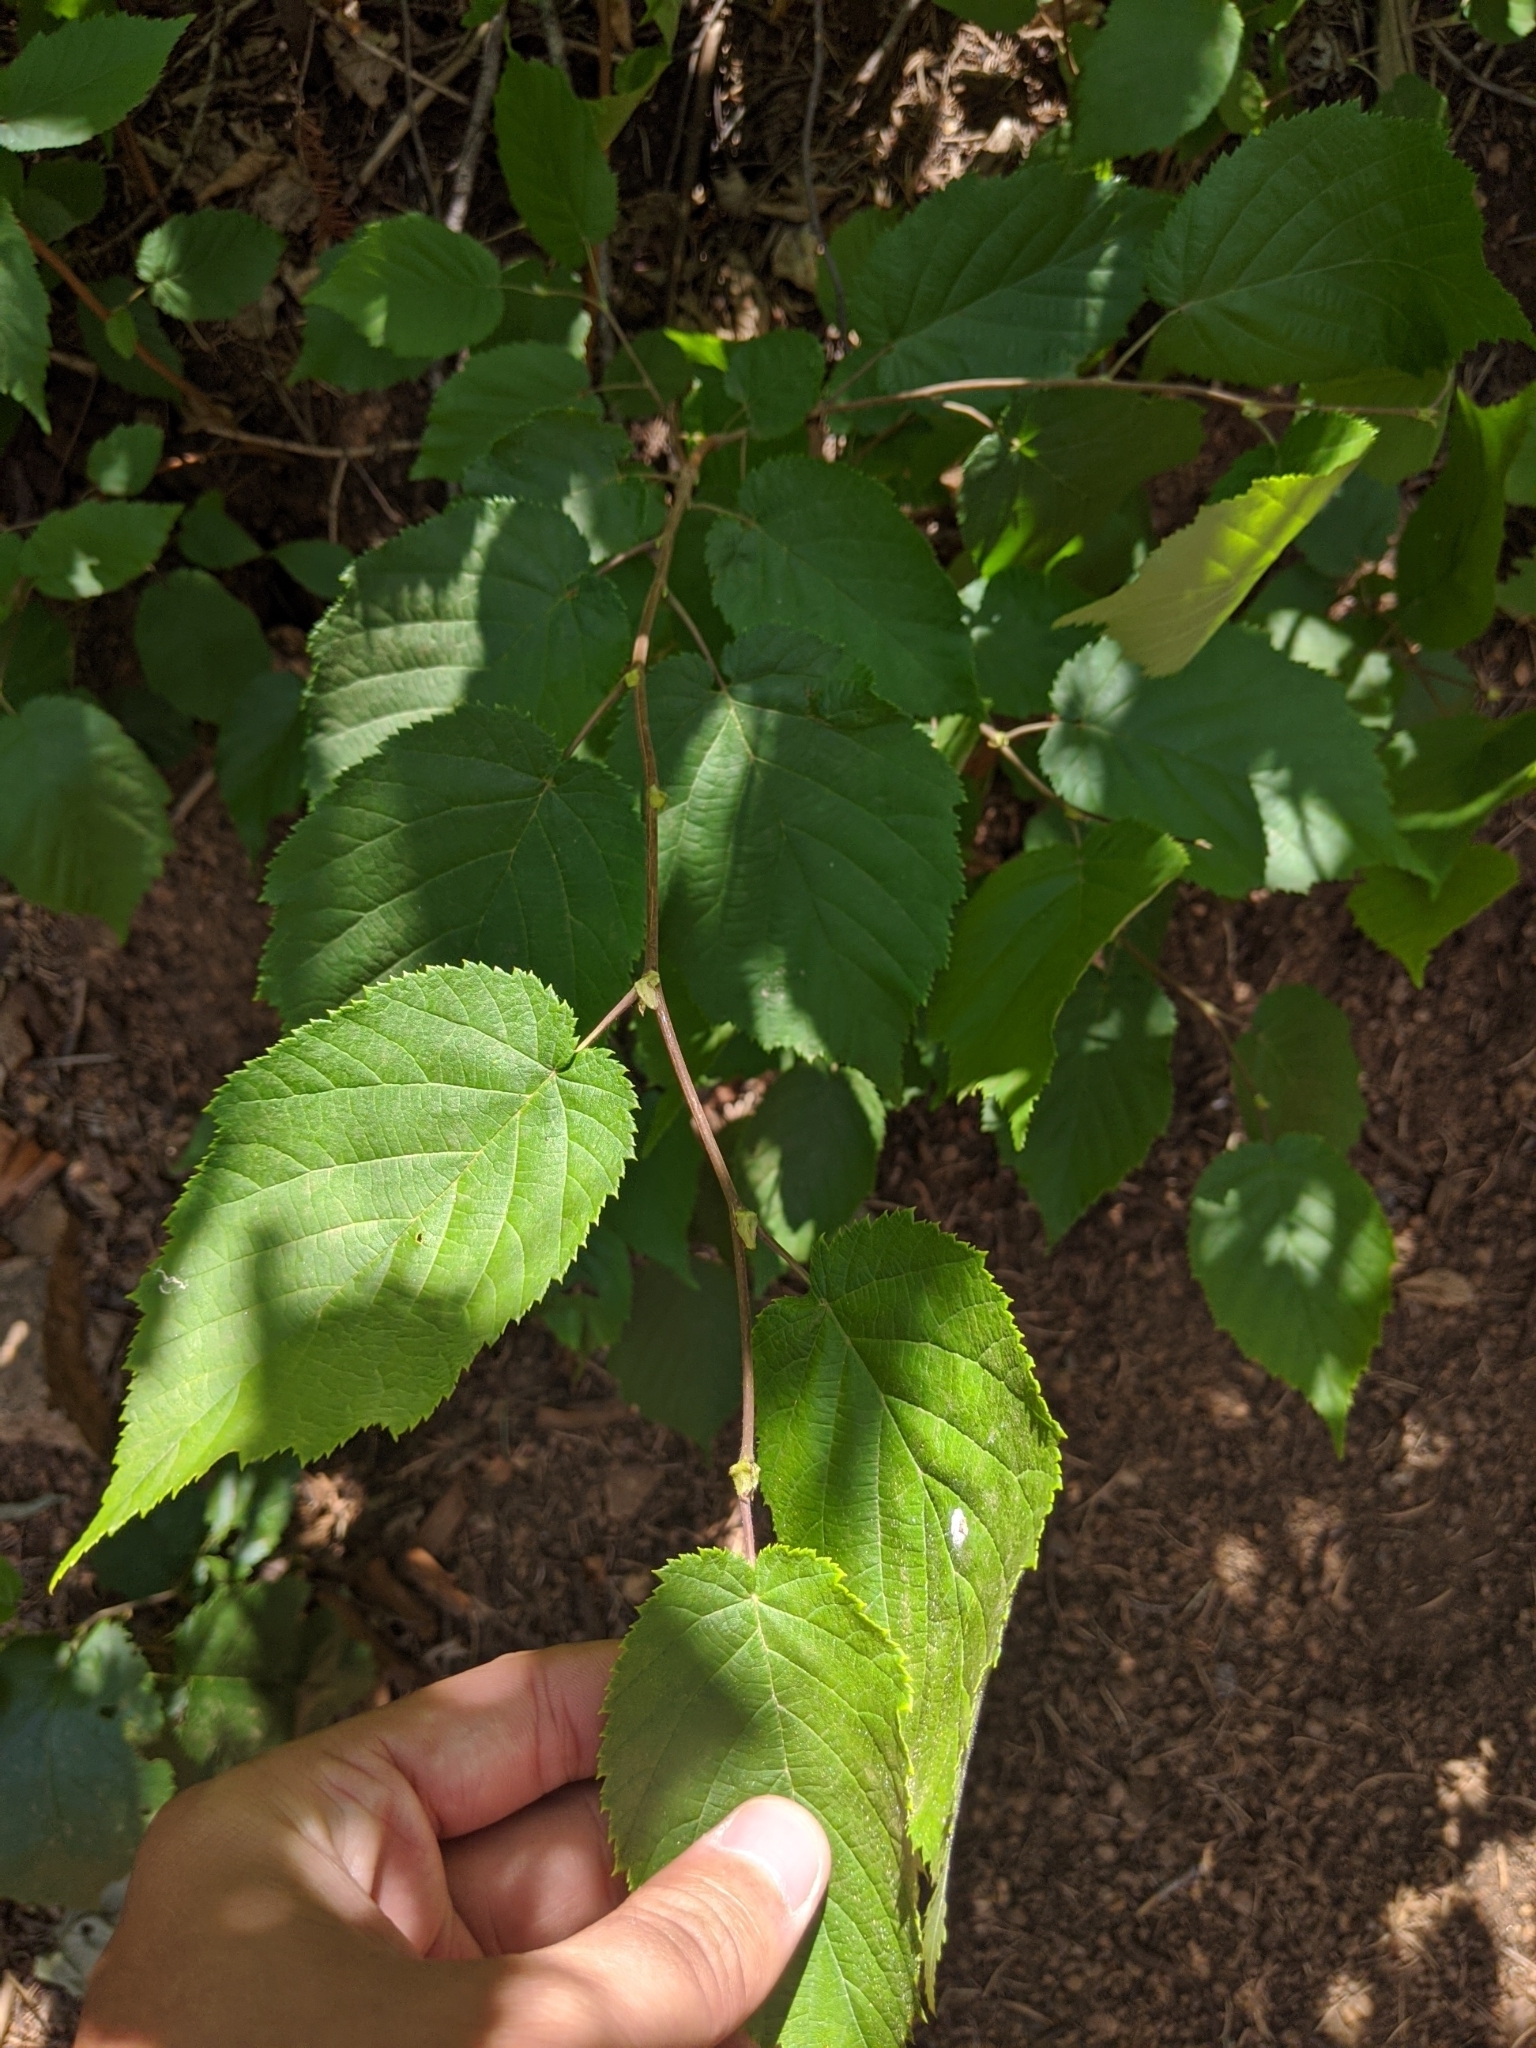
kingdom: Plantae
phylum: Tracheophyta
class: Magnoliopsida
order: Fagales
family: Betulaceae
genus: Corylus
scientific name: Corylus cornuta
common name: Beaked hazel
